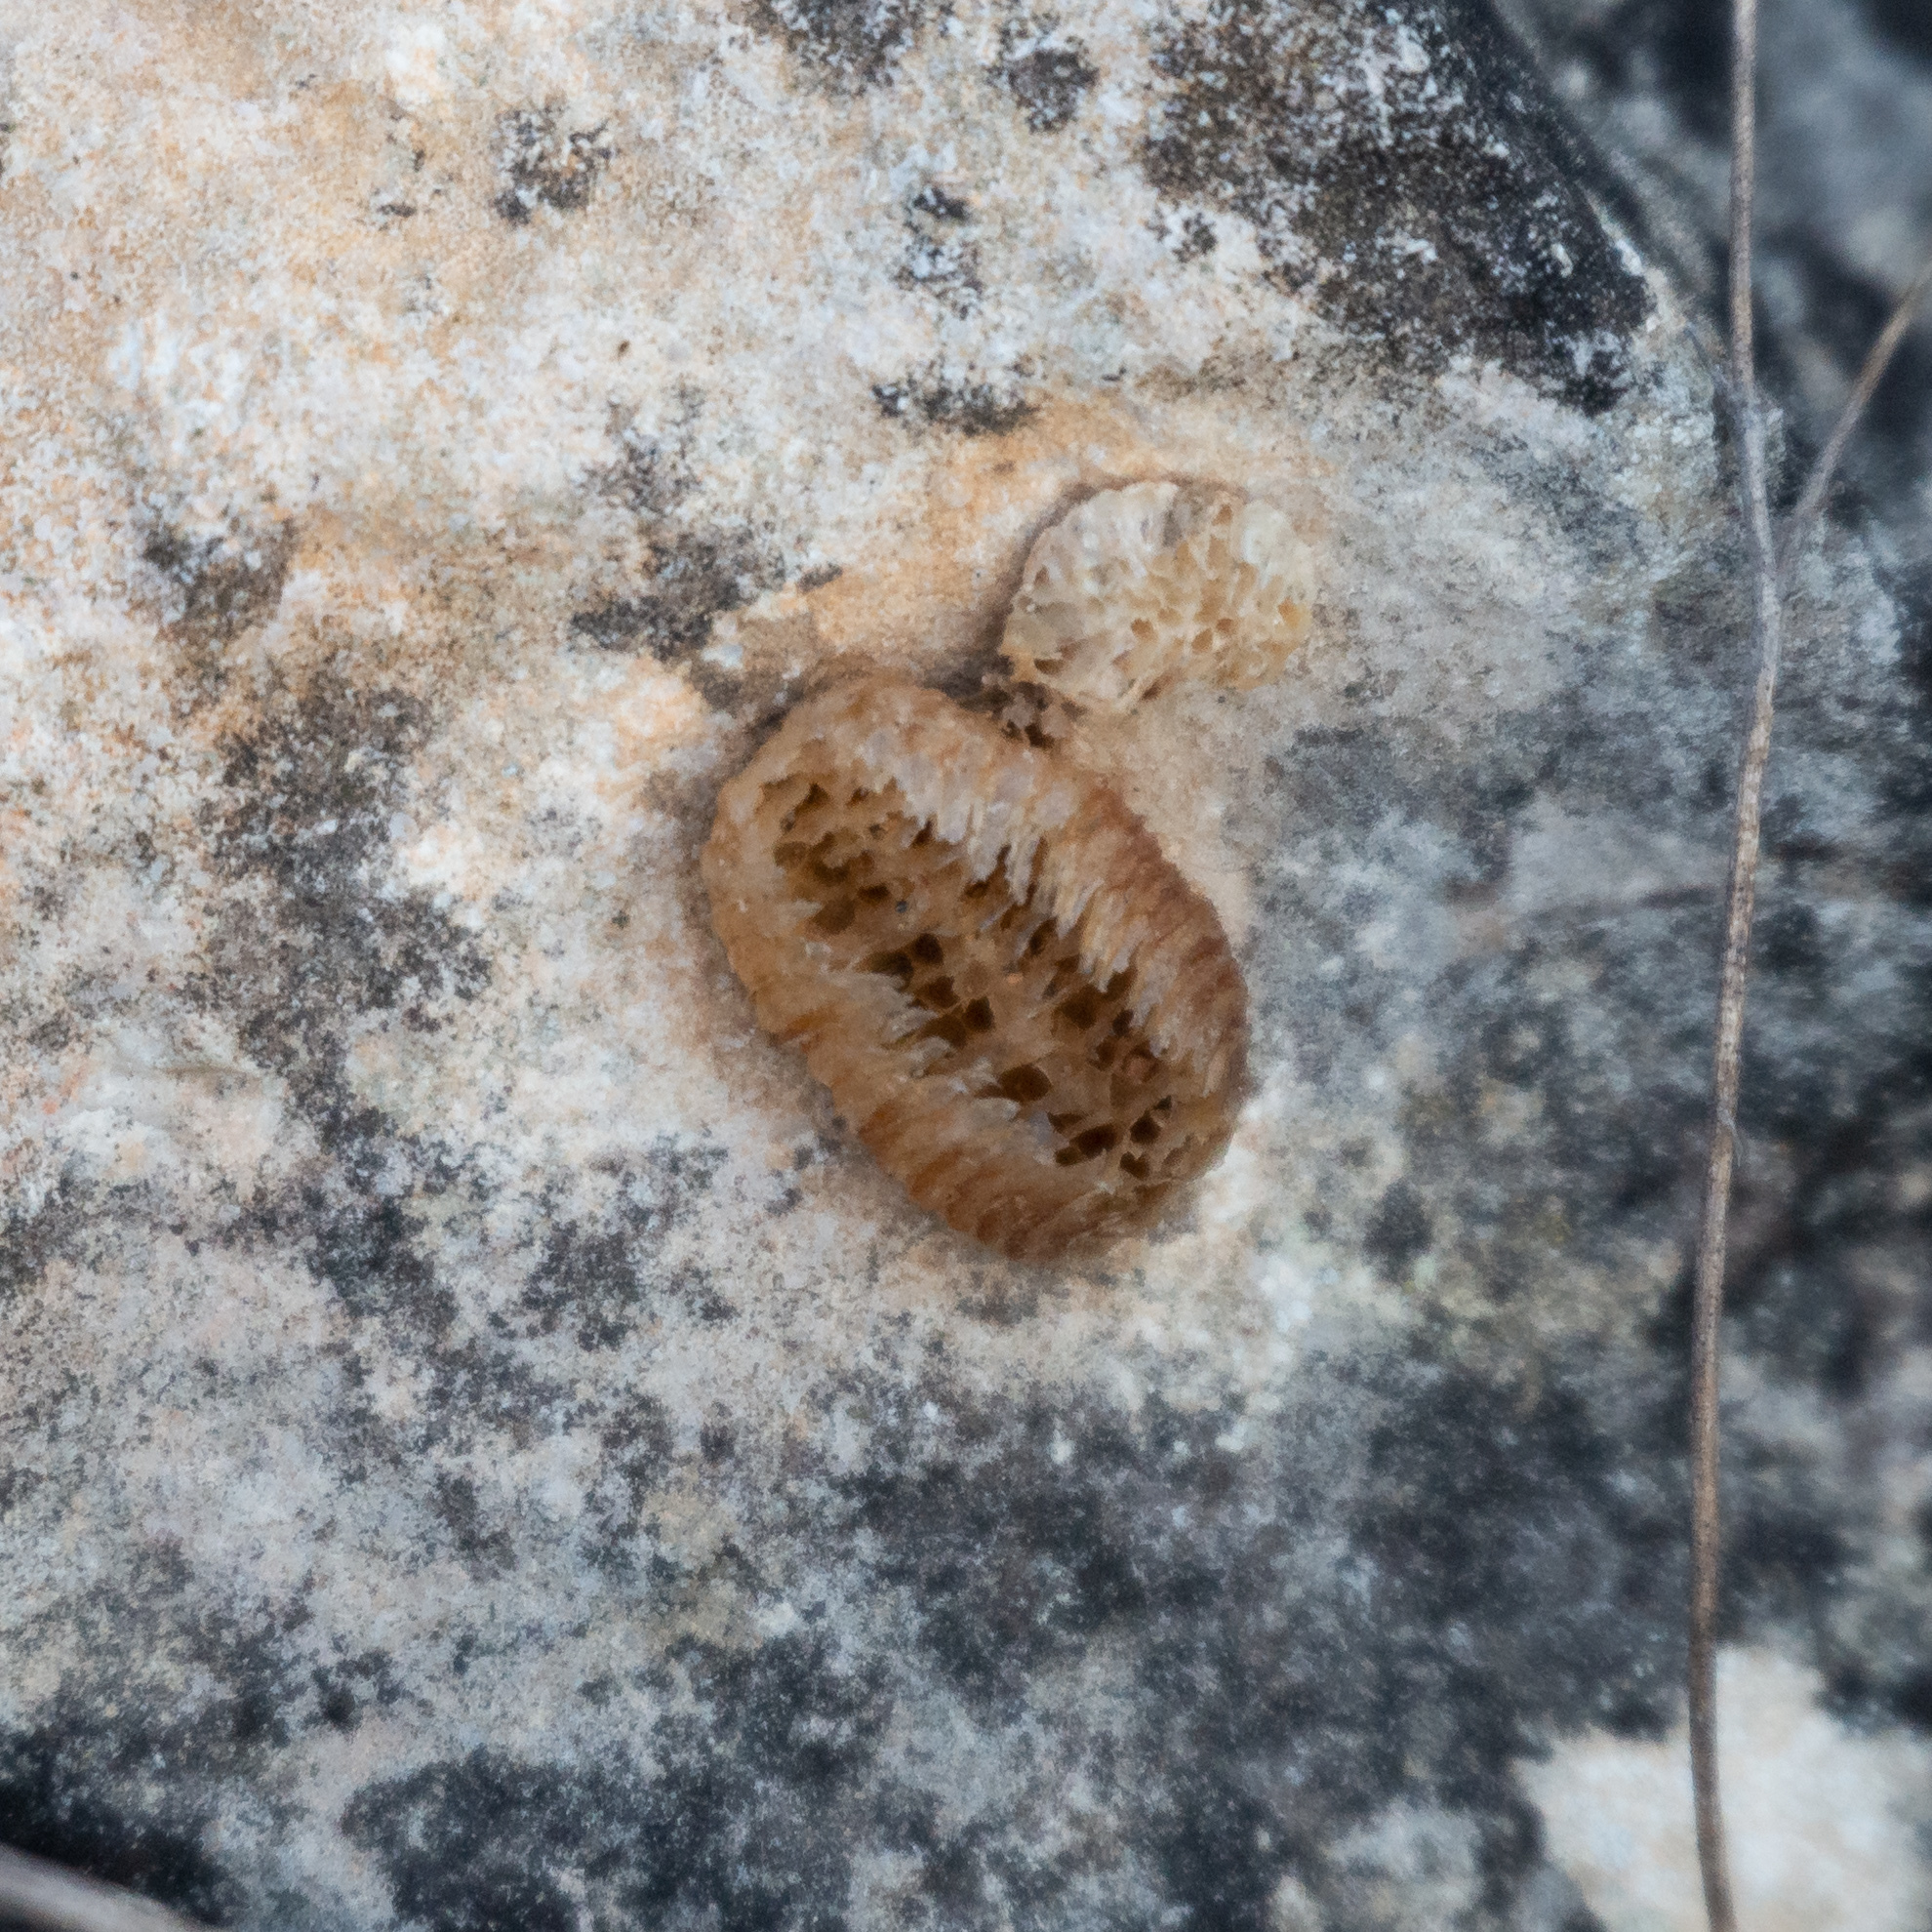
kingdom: Animalia
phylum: Arthropoda
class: Insecta
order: Mantodea
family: Mantidae
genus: Mantis
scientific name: Mantis religiosa
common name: Praying mantis
